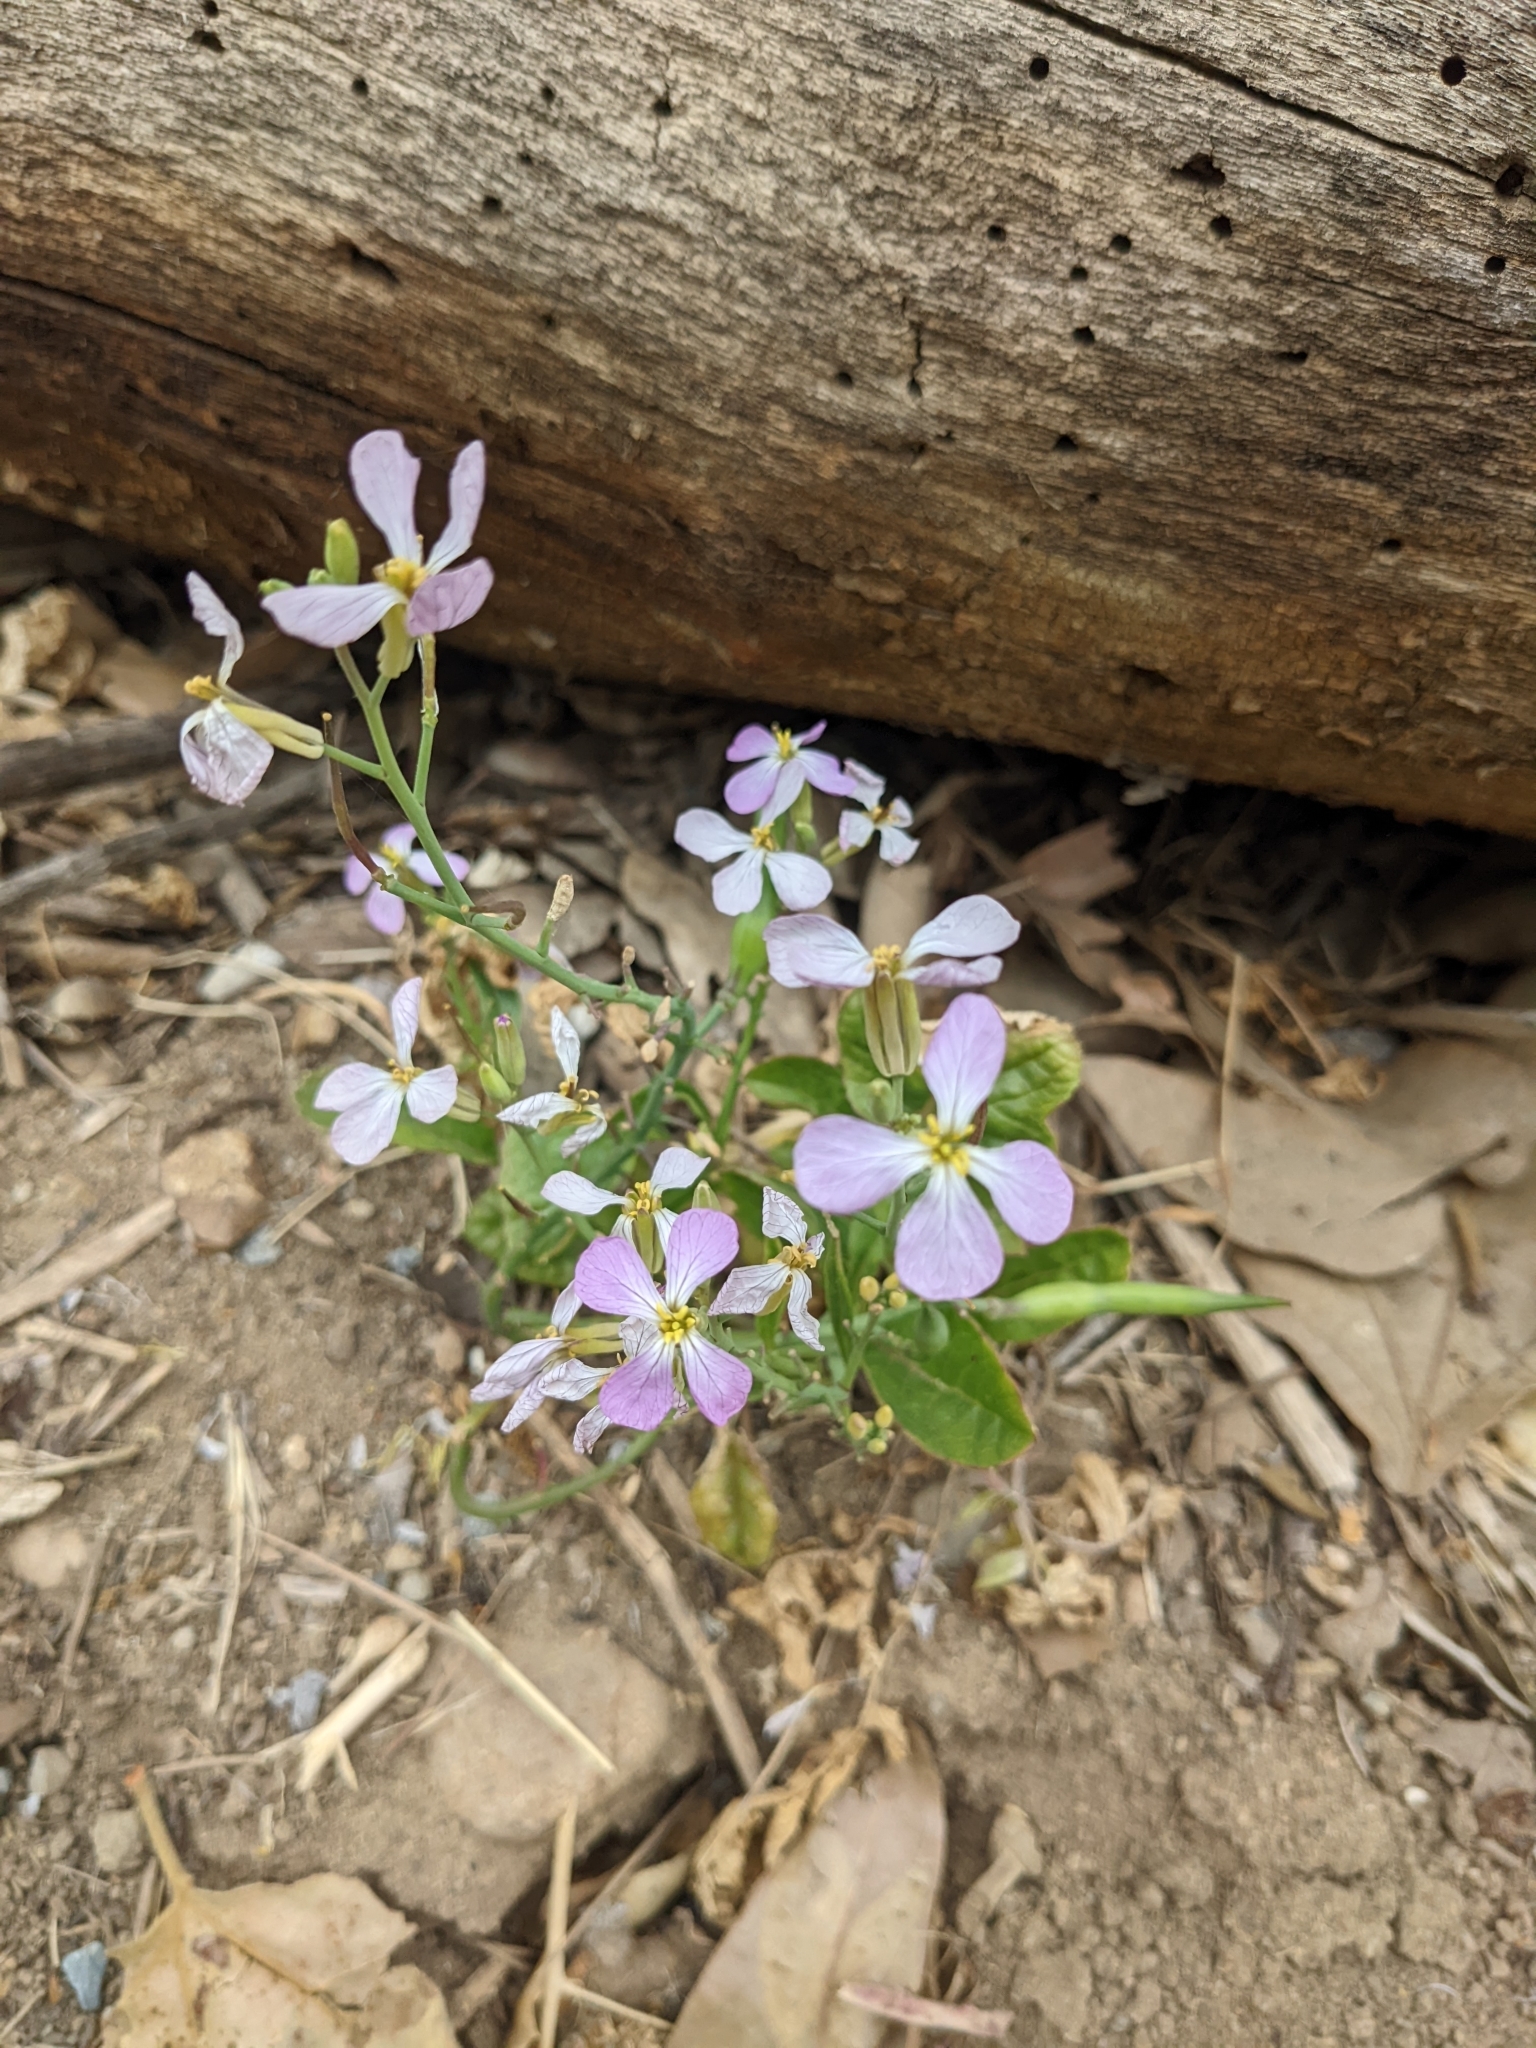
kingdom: Plantae
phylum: Tracheophyta
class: Magnoliopsida
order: Brassicales
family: Brassicaceae
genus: Raphanus
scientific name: Raphanus sativus
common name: Cultivated radish
